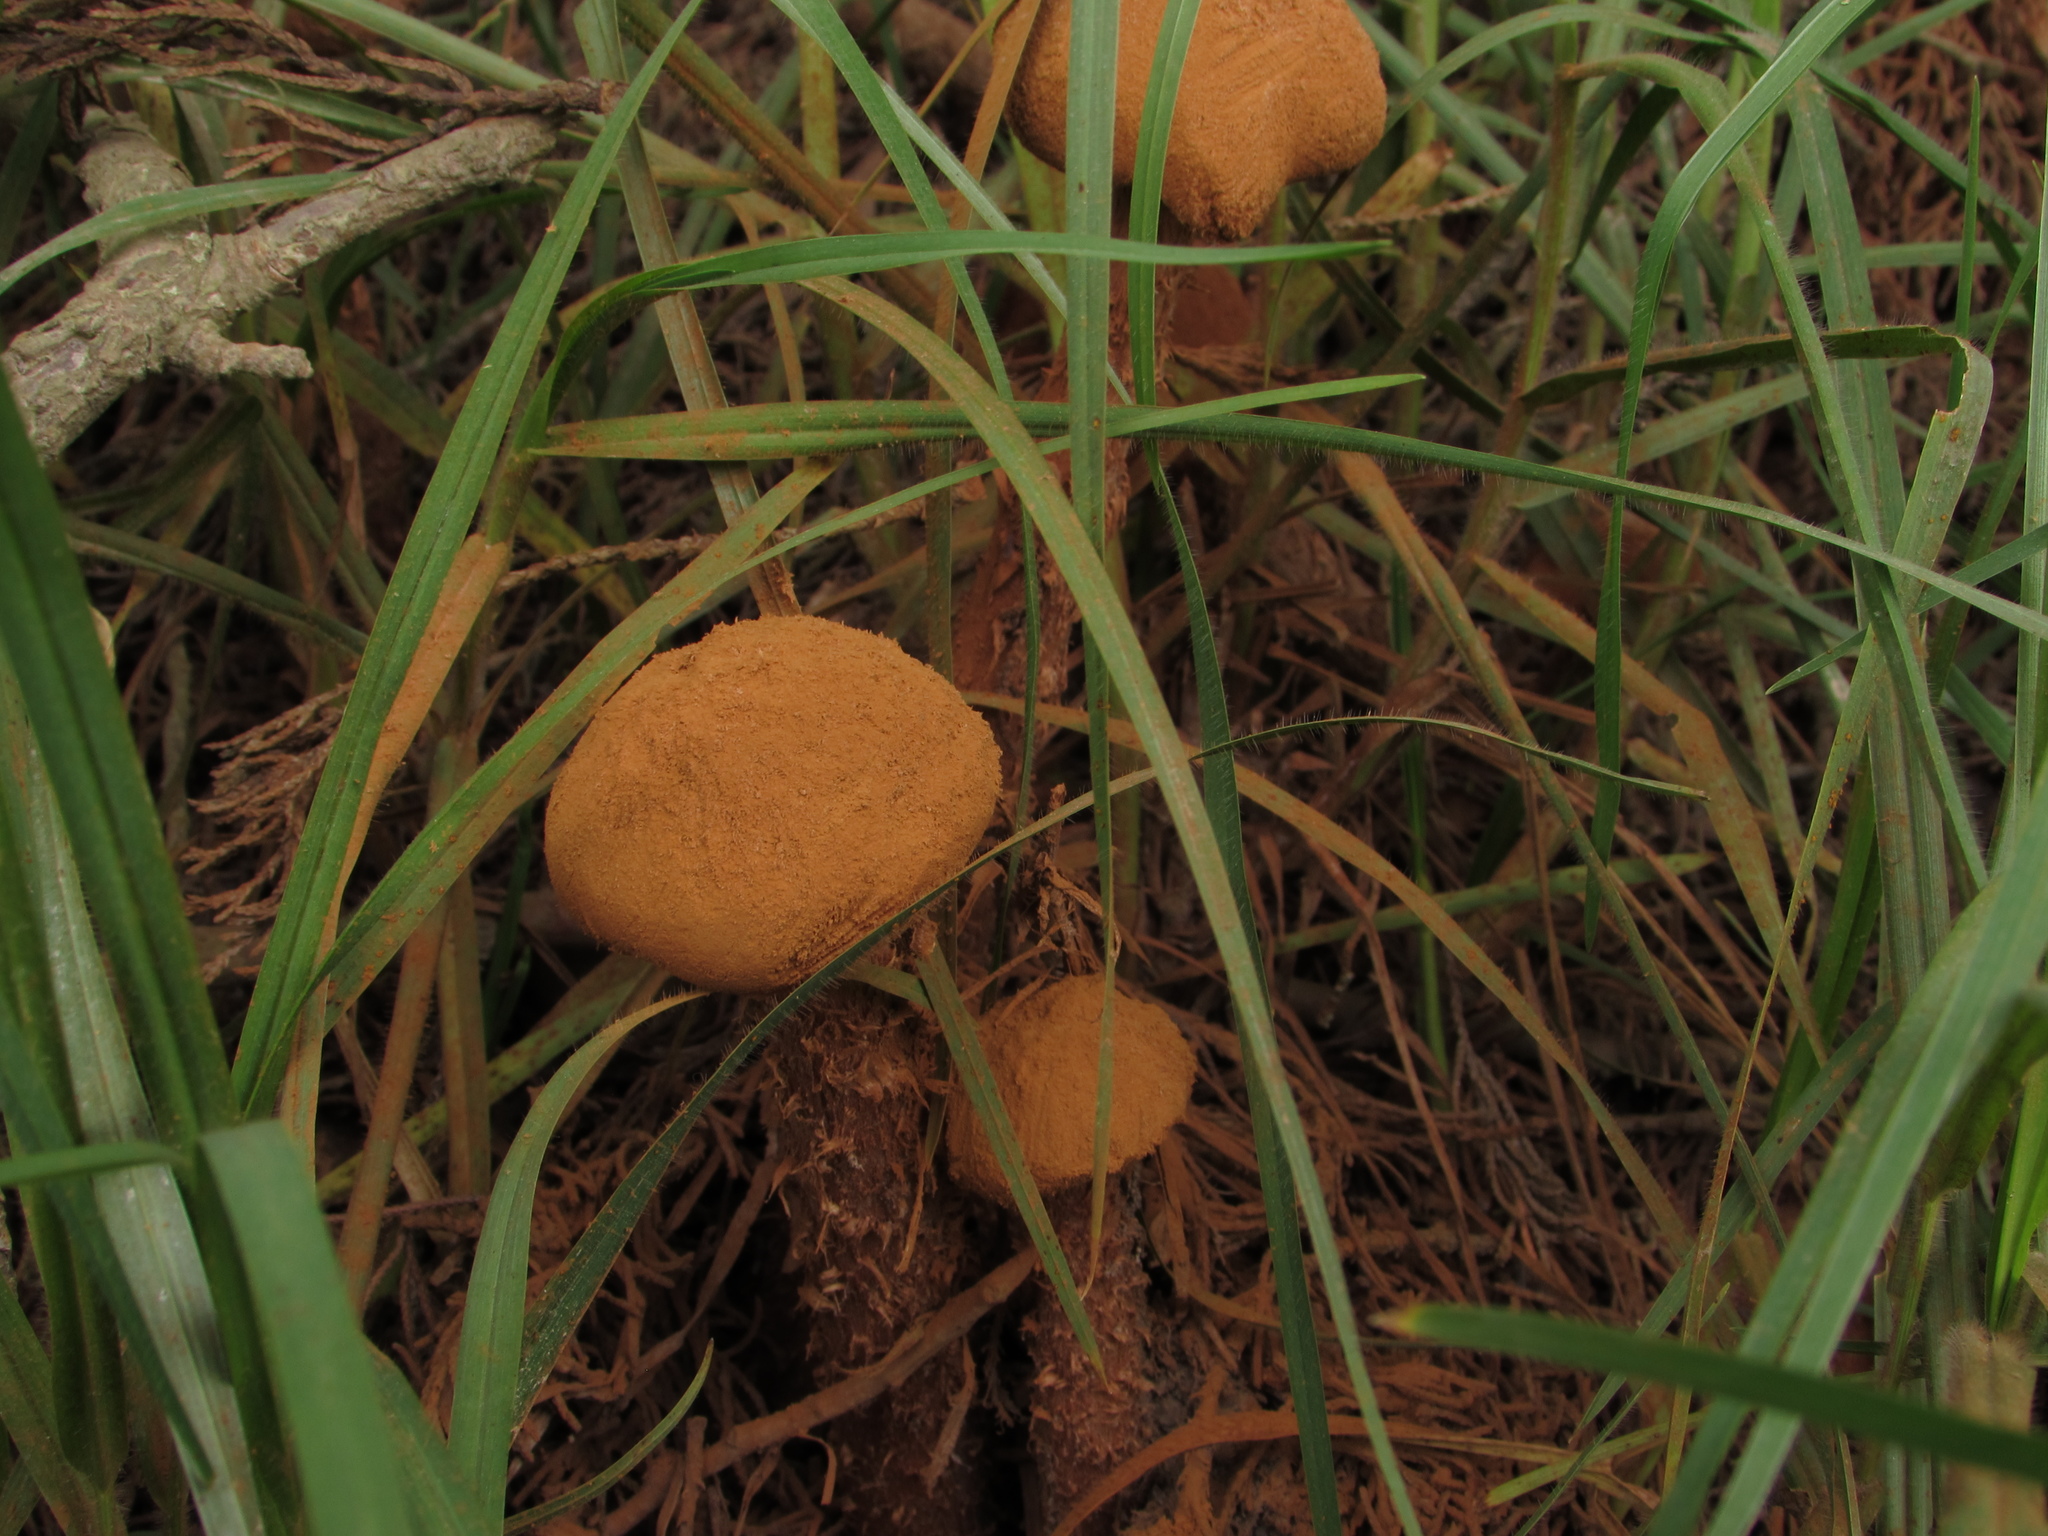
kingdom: Fungi
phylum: Basidiomycota
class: Agaricomycetes
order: Agaricales
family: Agaricaceae
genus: Battarrea
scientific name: Battarrea phalloides
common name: Sandy stiltball
